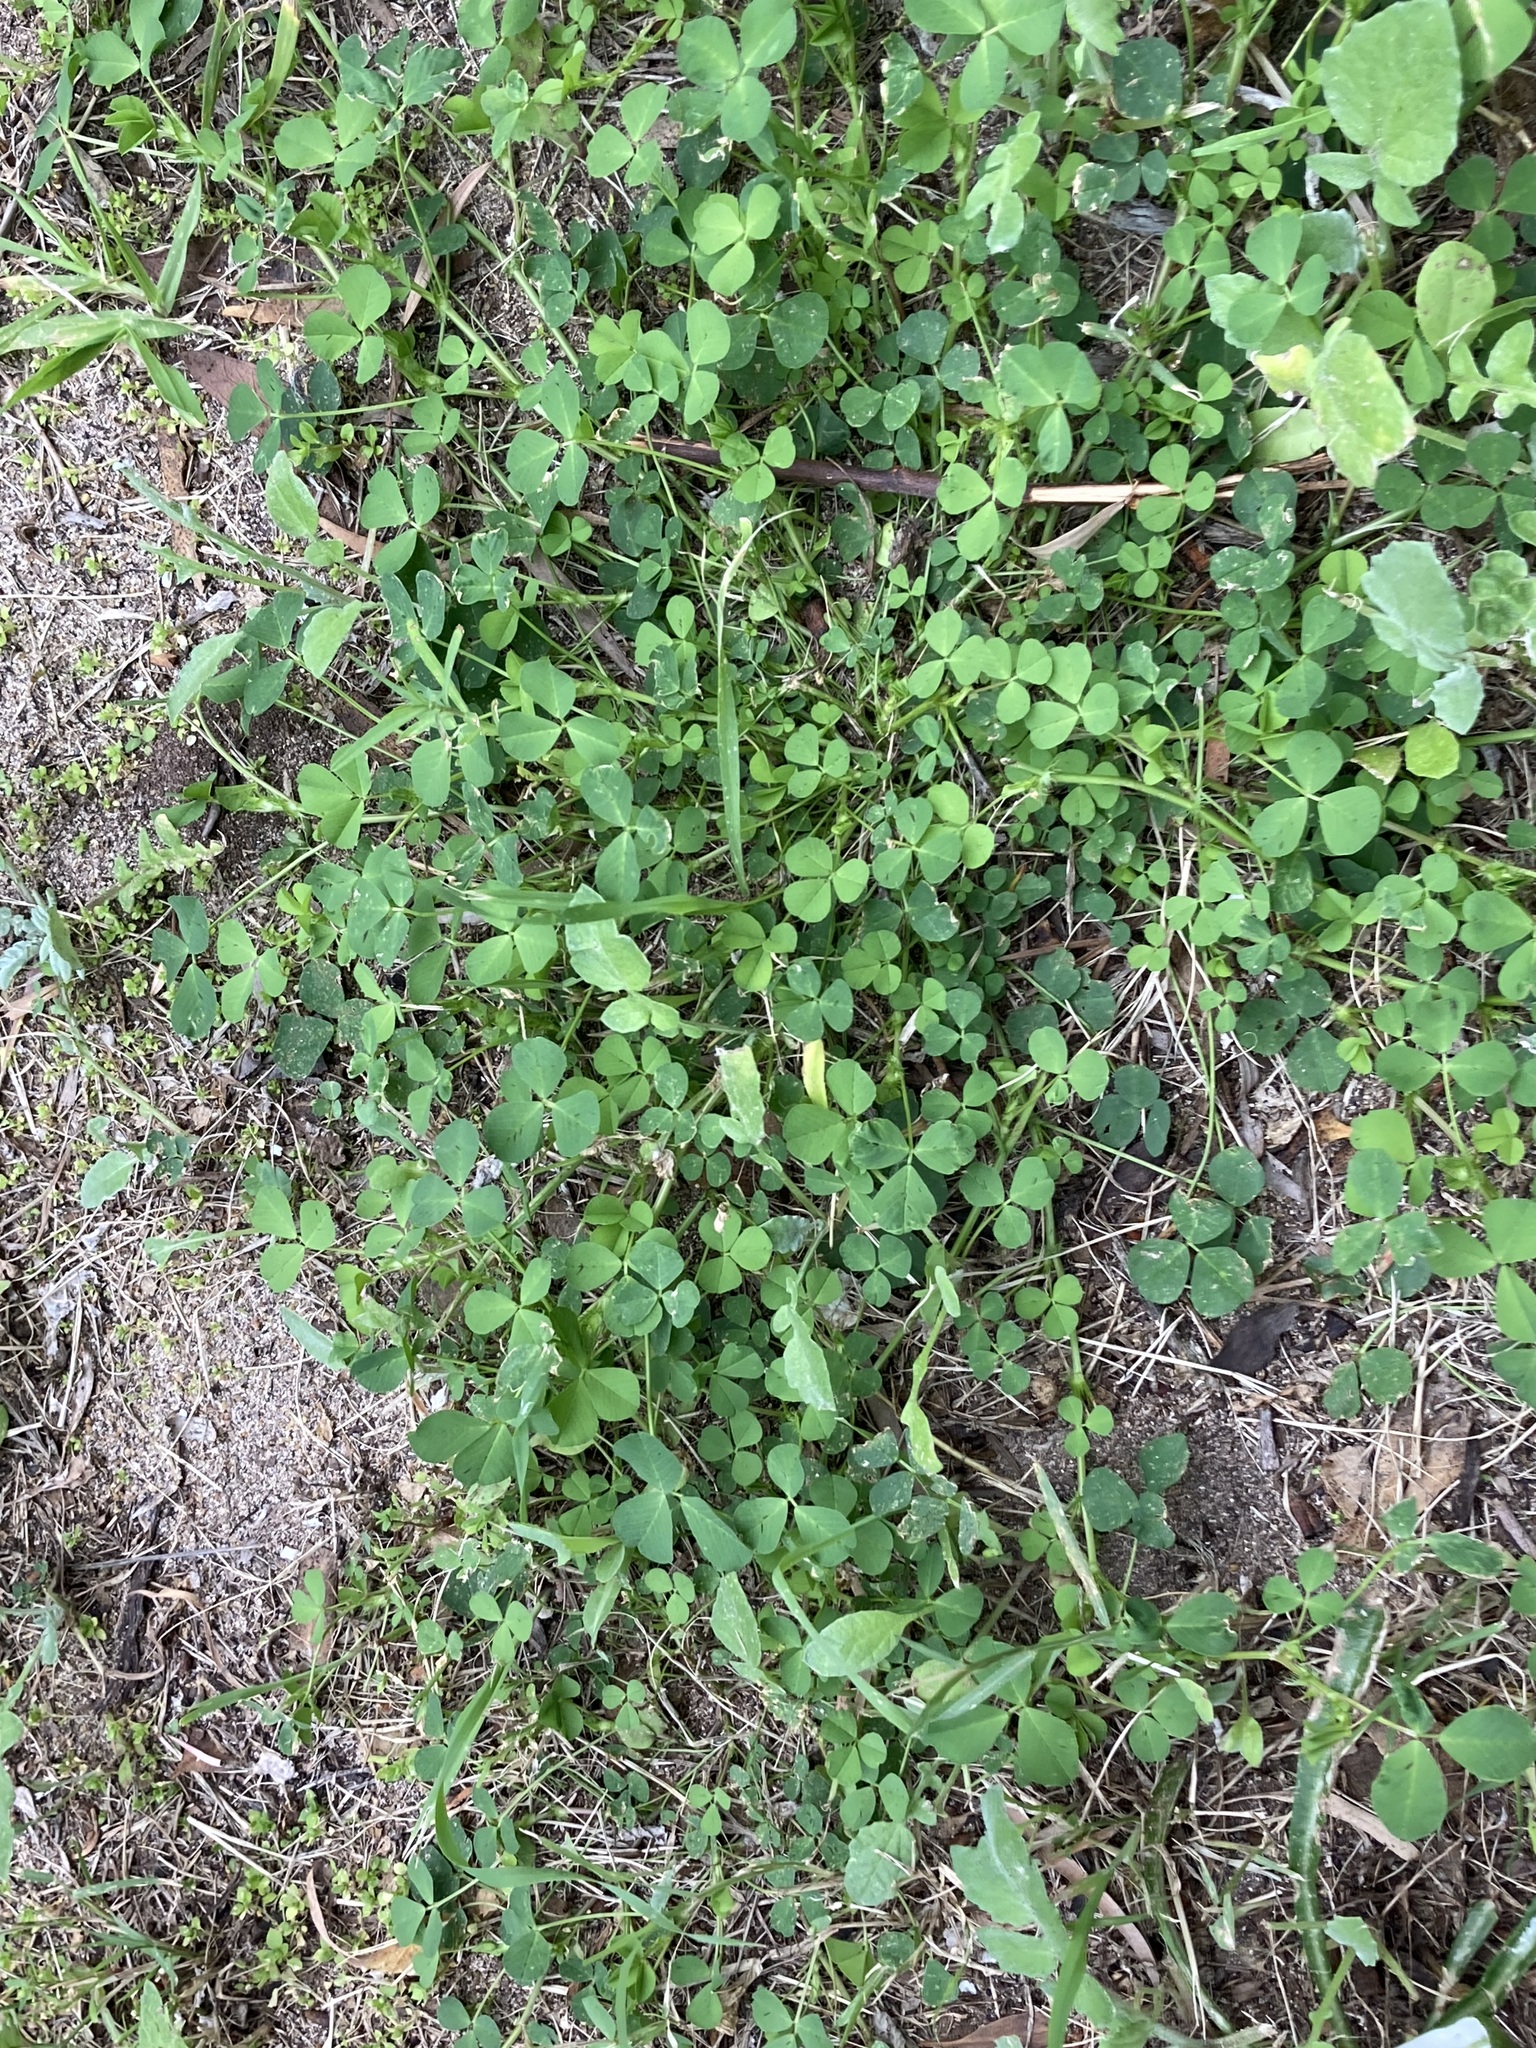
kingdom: Plantae
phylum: Tracheophyta
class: Magnoliopsida
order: Fabales
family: Fabaceae
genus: Medicago
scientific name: Medicago polymorpha
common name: Burclover
